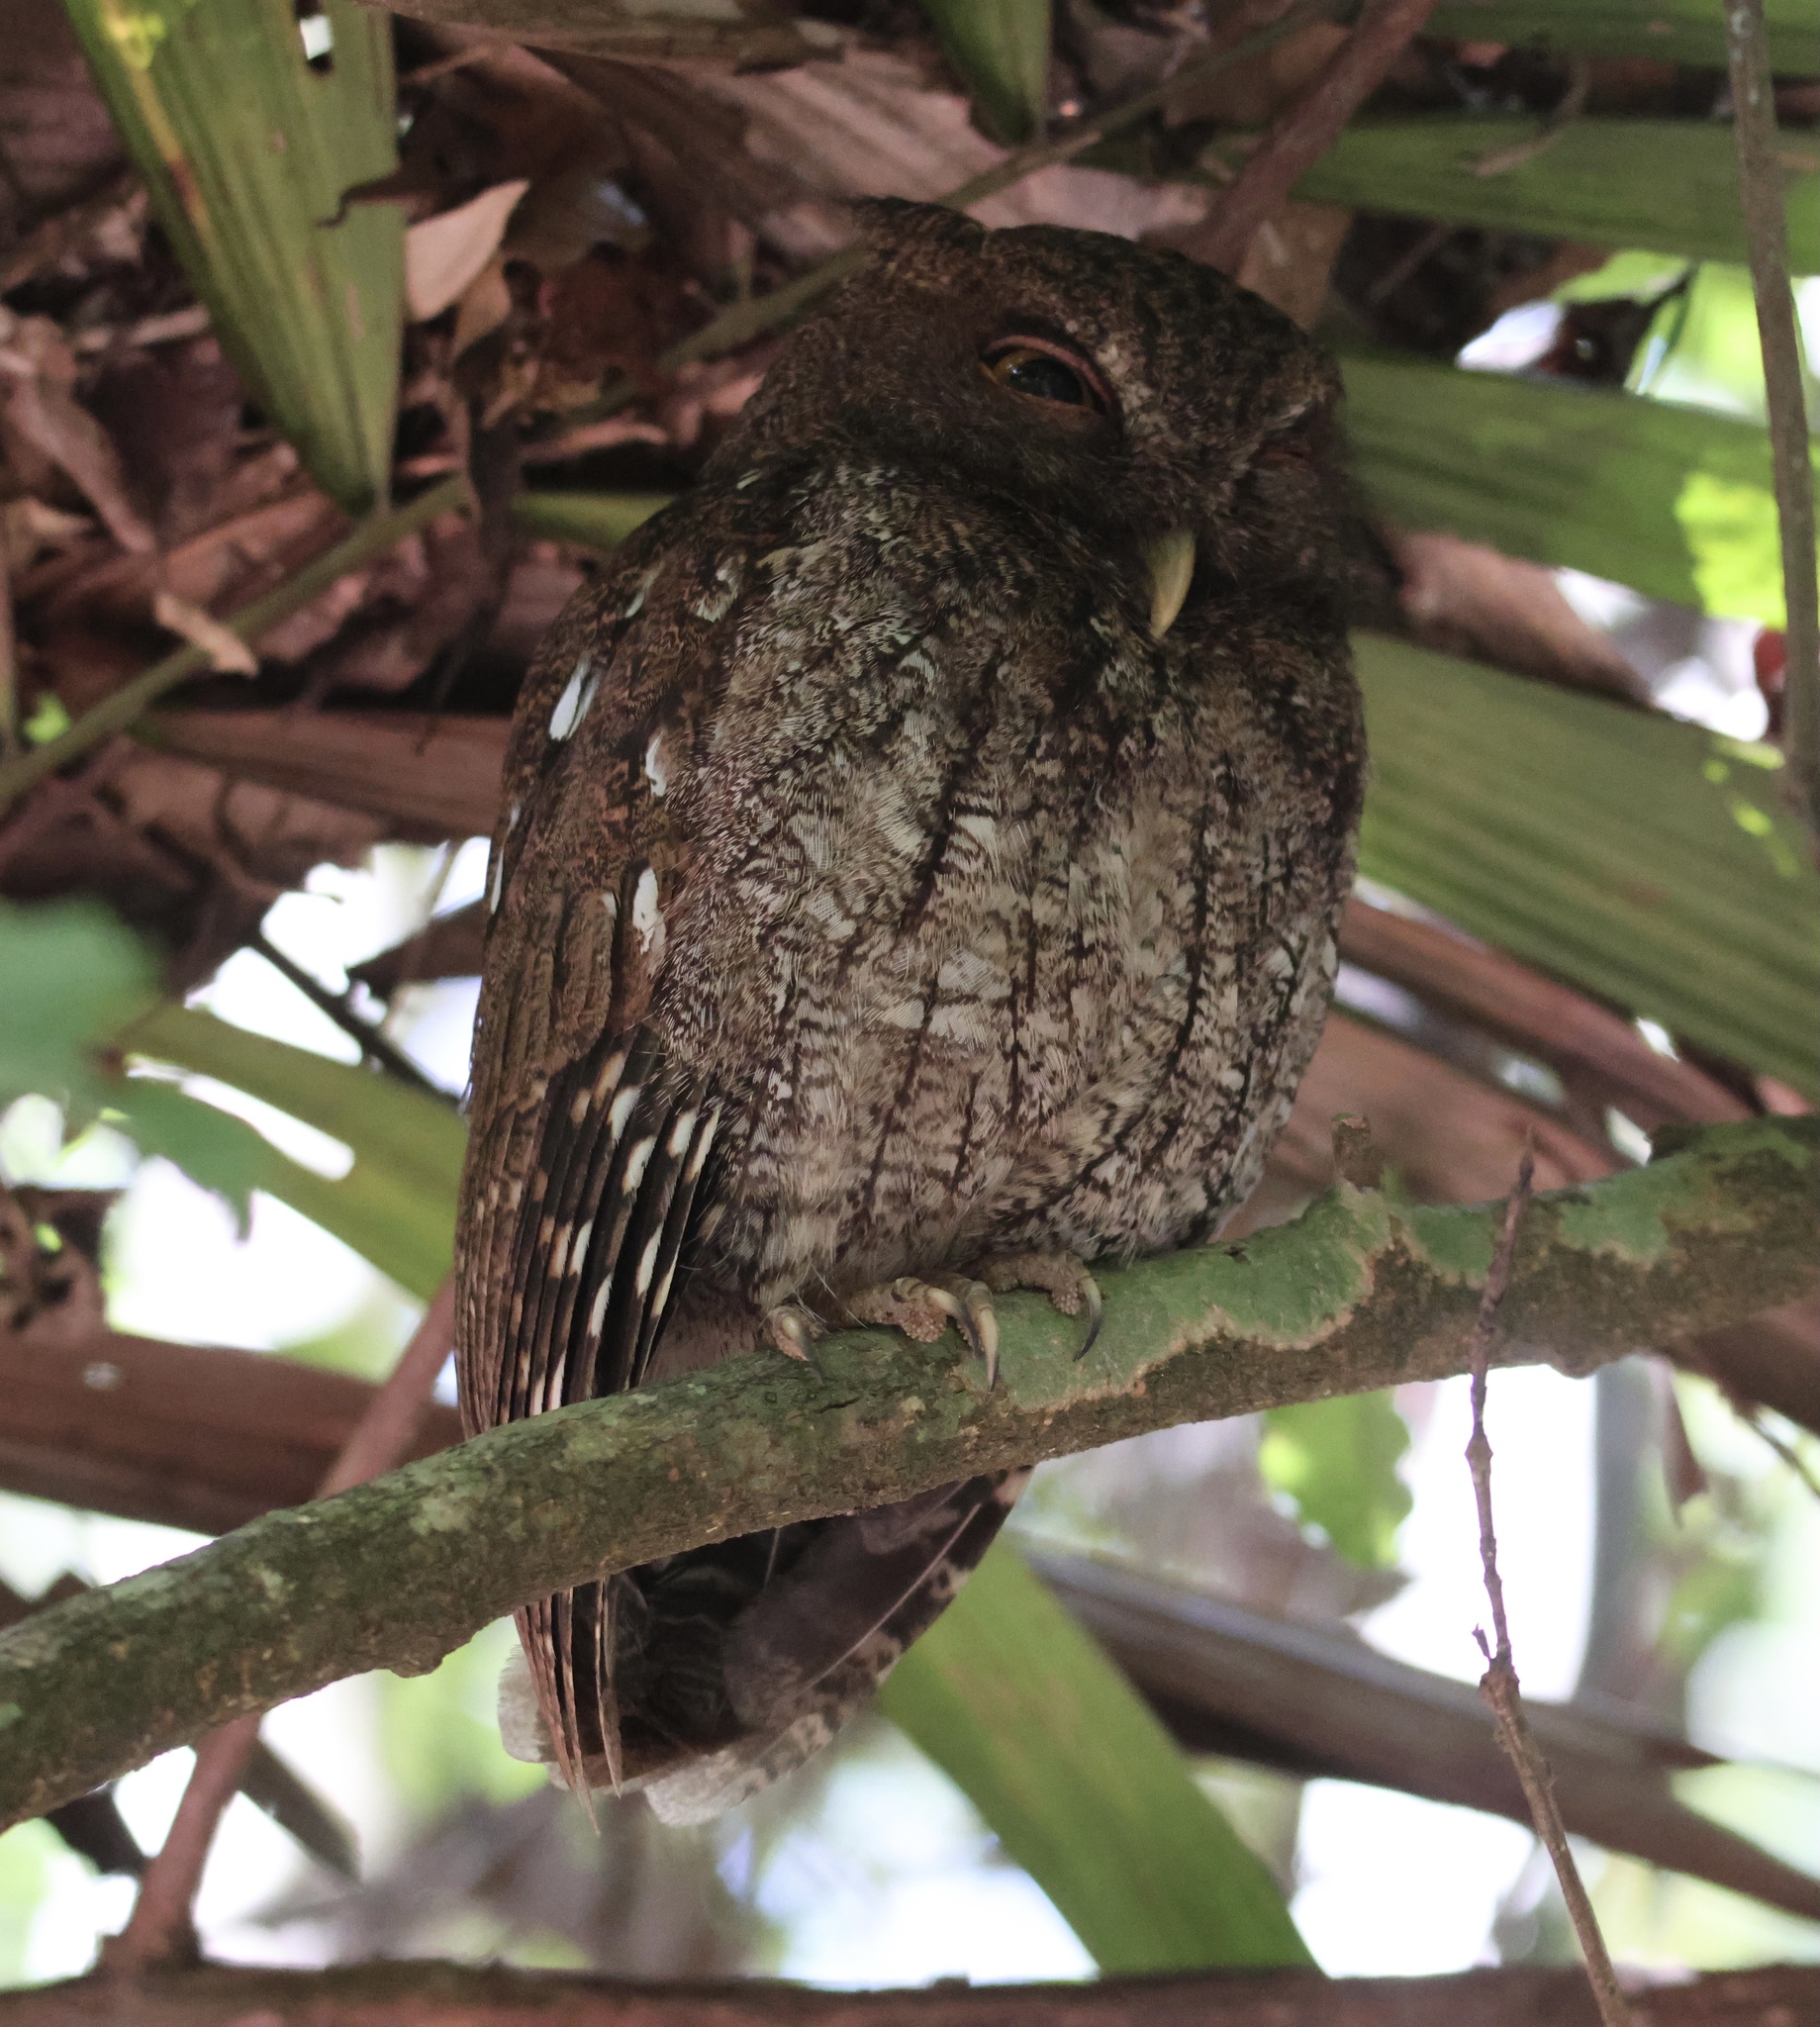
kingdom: Animalia
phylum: Chordata
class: Aves
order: Strigiformes
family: Strigidae
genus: Megascops
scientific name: Megascops centralis
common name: Choco screech owl
